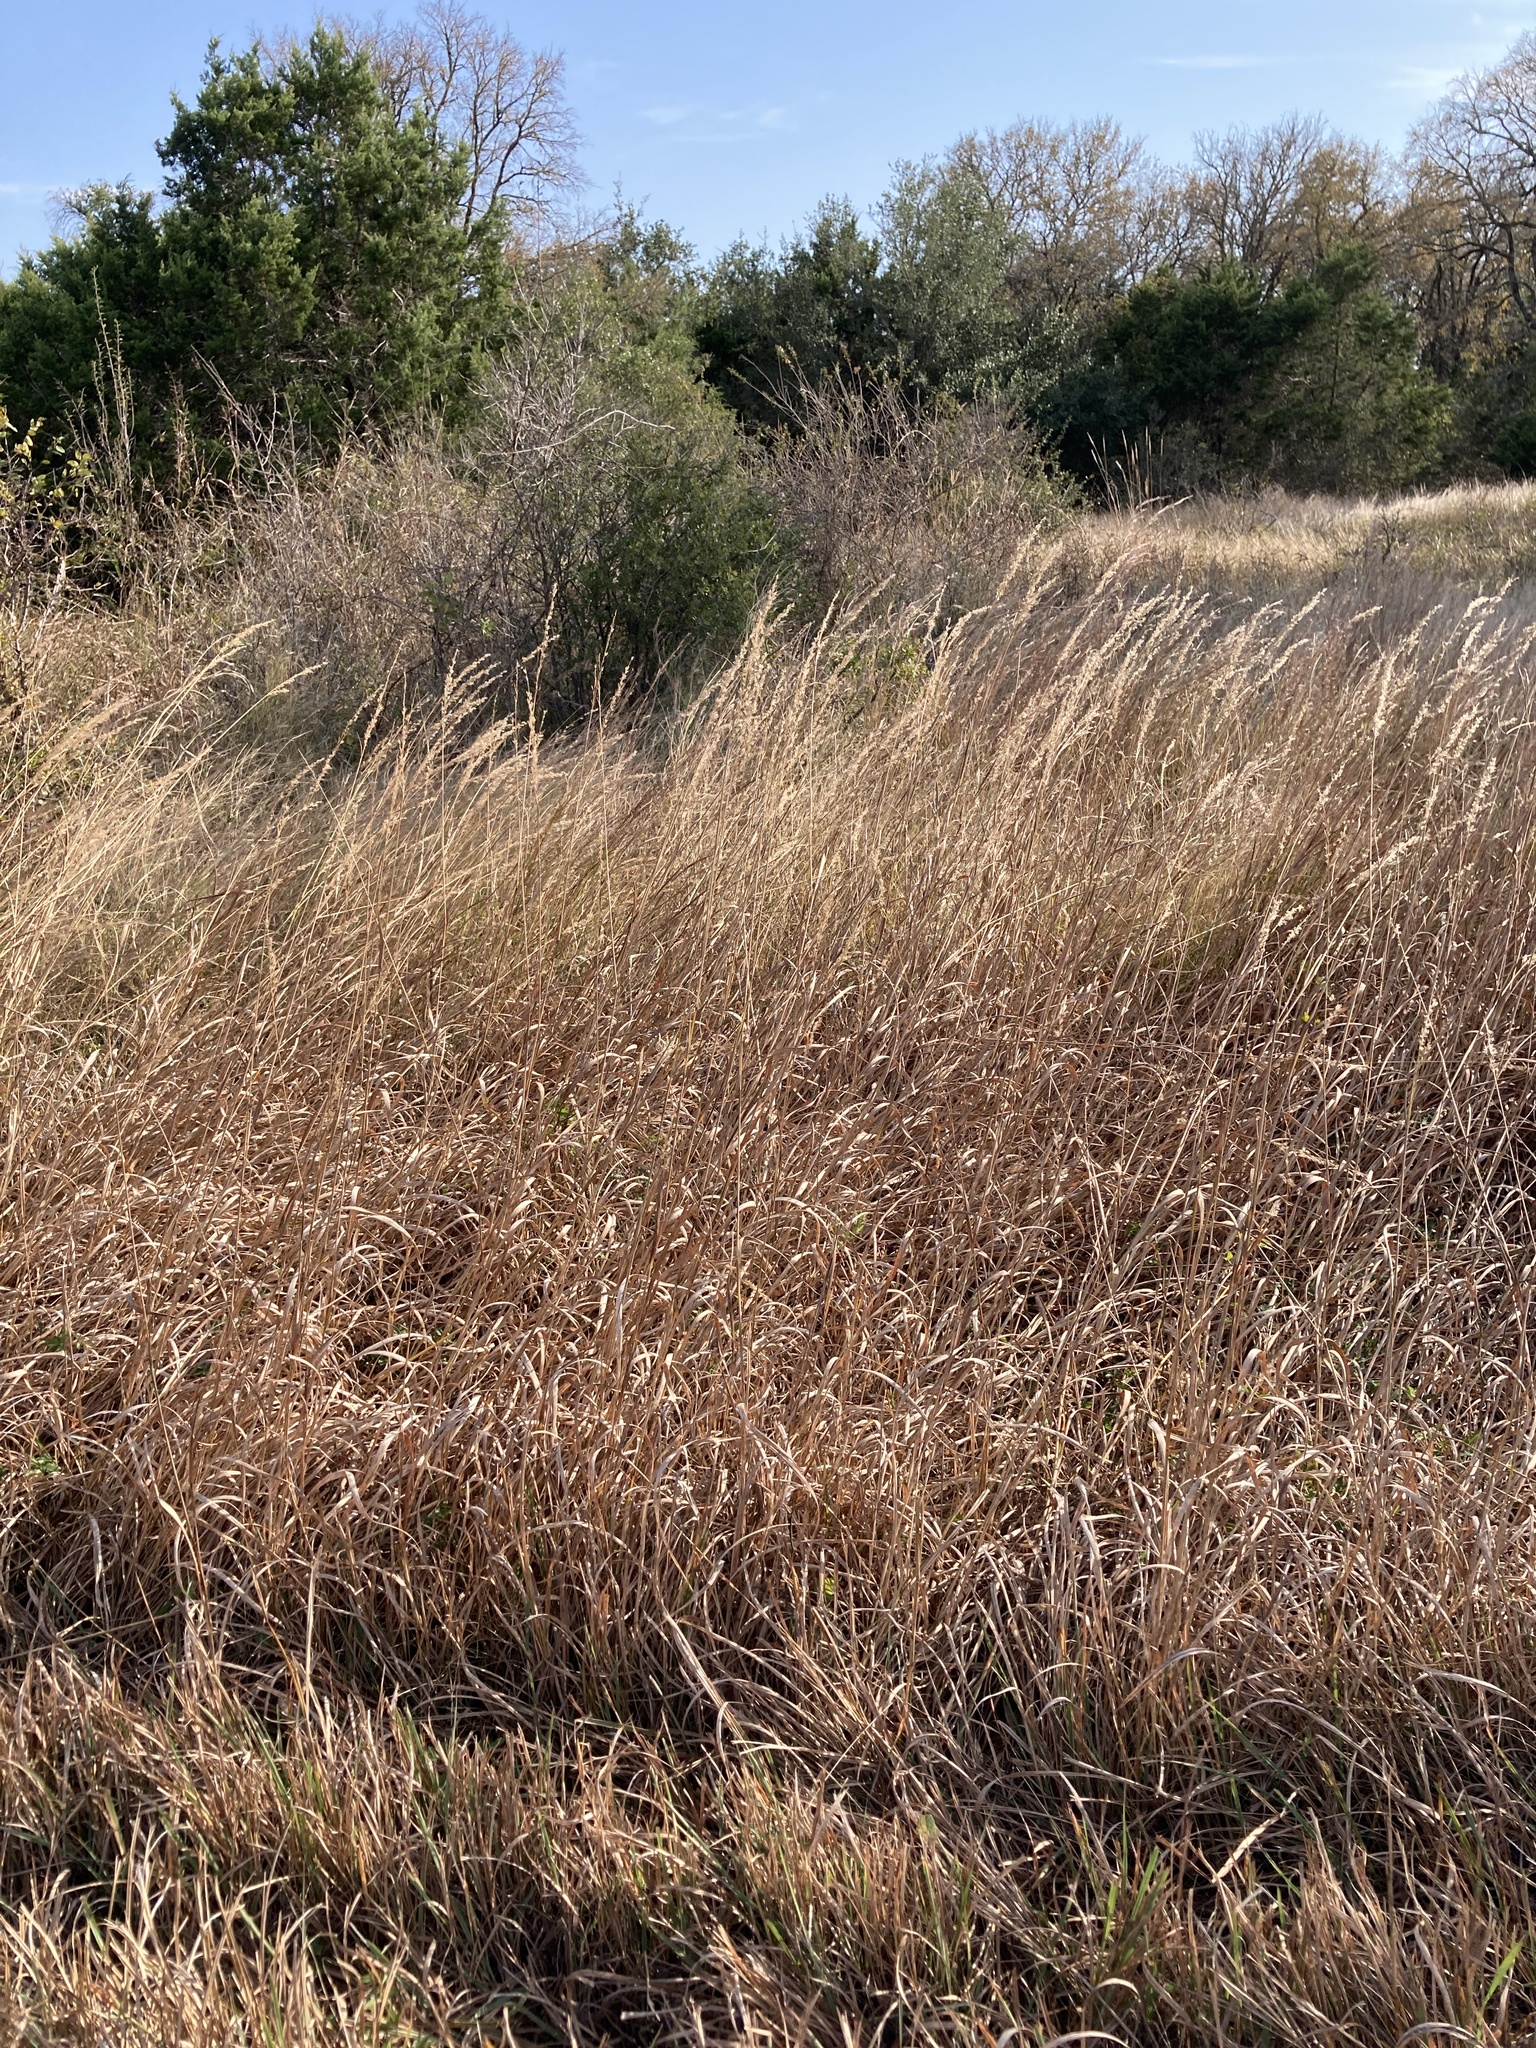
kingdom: Plantae
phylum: Tracheophyta
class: Liliopsida
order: Poales
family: Poaceae
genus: Sorghastrum
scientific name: Sorghastrum nutans
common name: Indian grass
